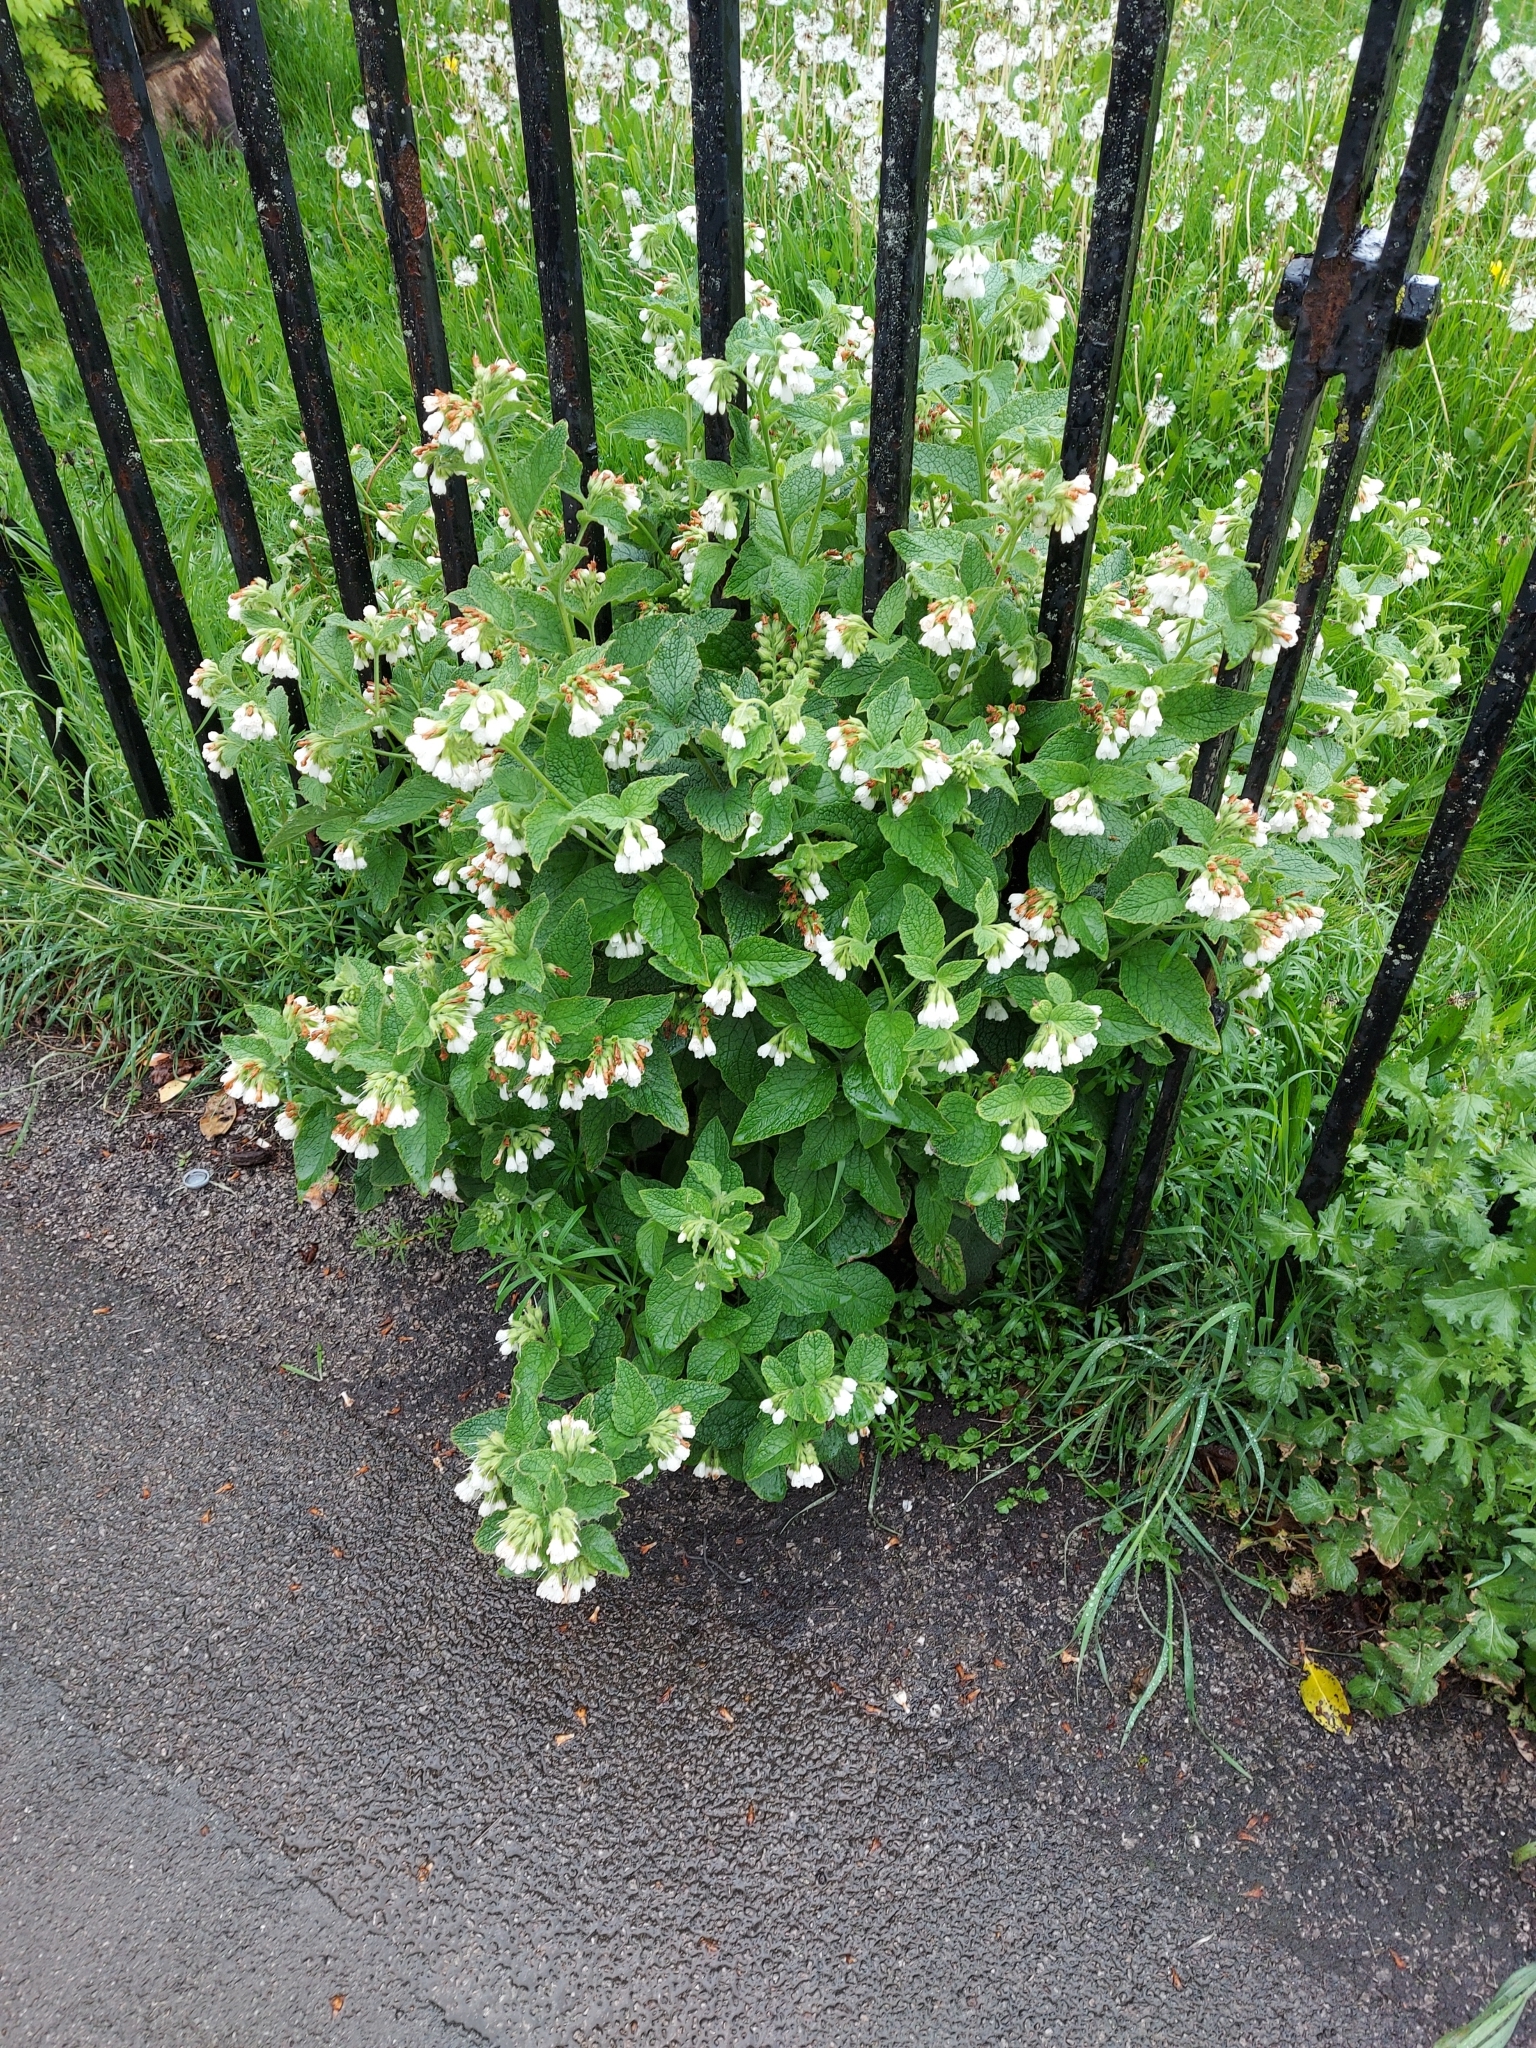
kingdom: Plantae
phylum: Tracheophyta
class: Magnoliopsida
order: Boraginales
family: Boraginaceae
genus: Symphytum
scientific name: Symphytum orientale
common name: White comfrey
